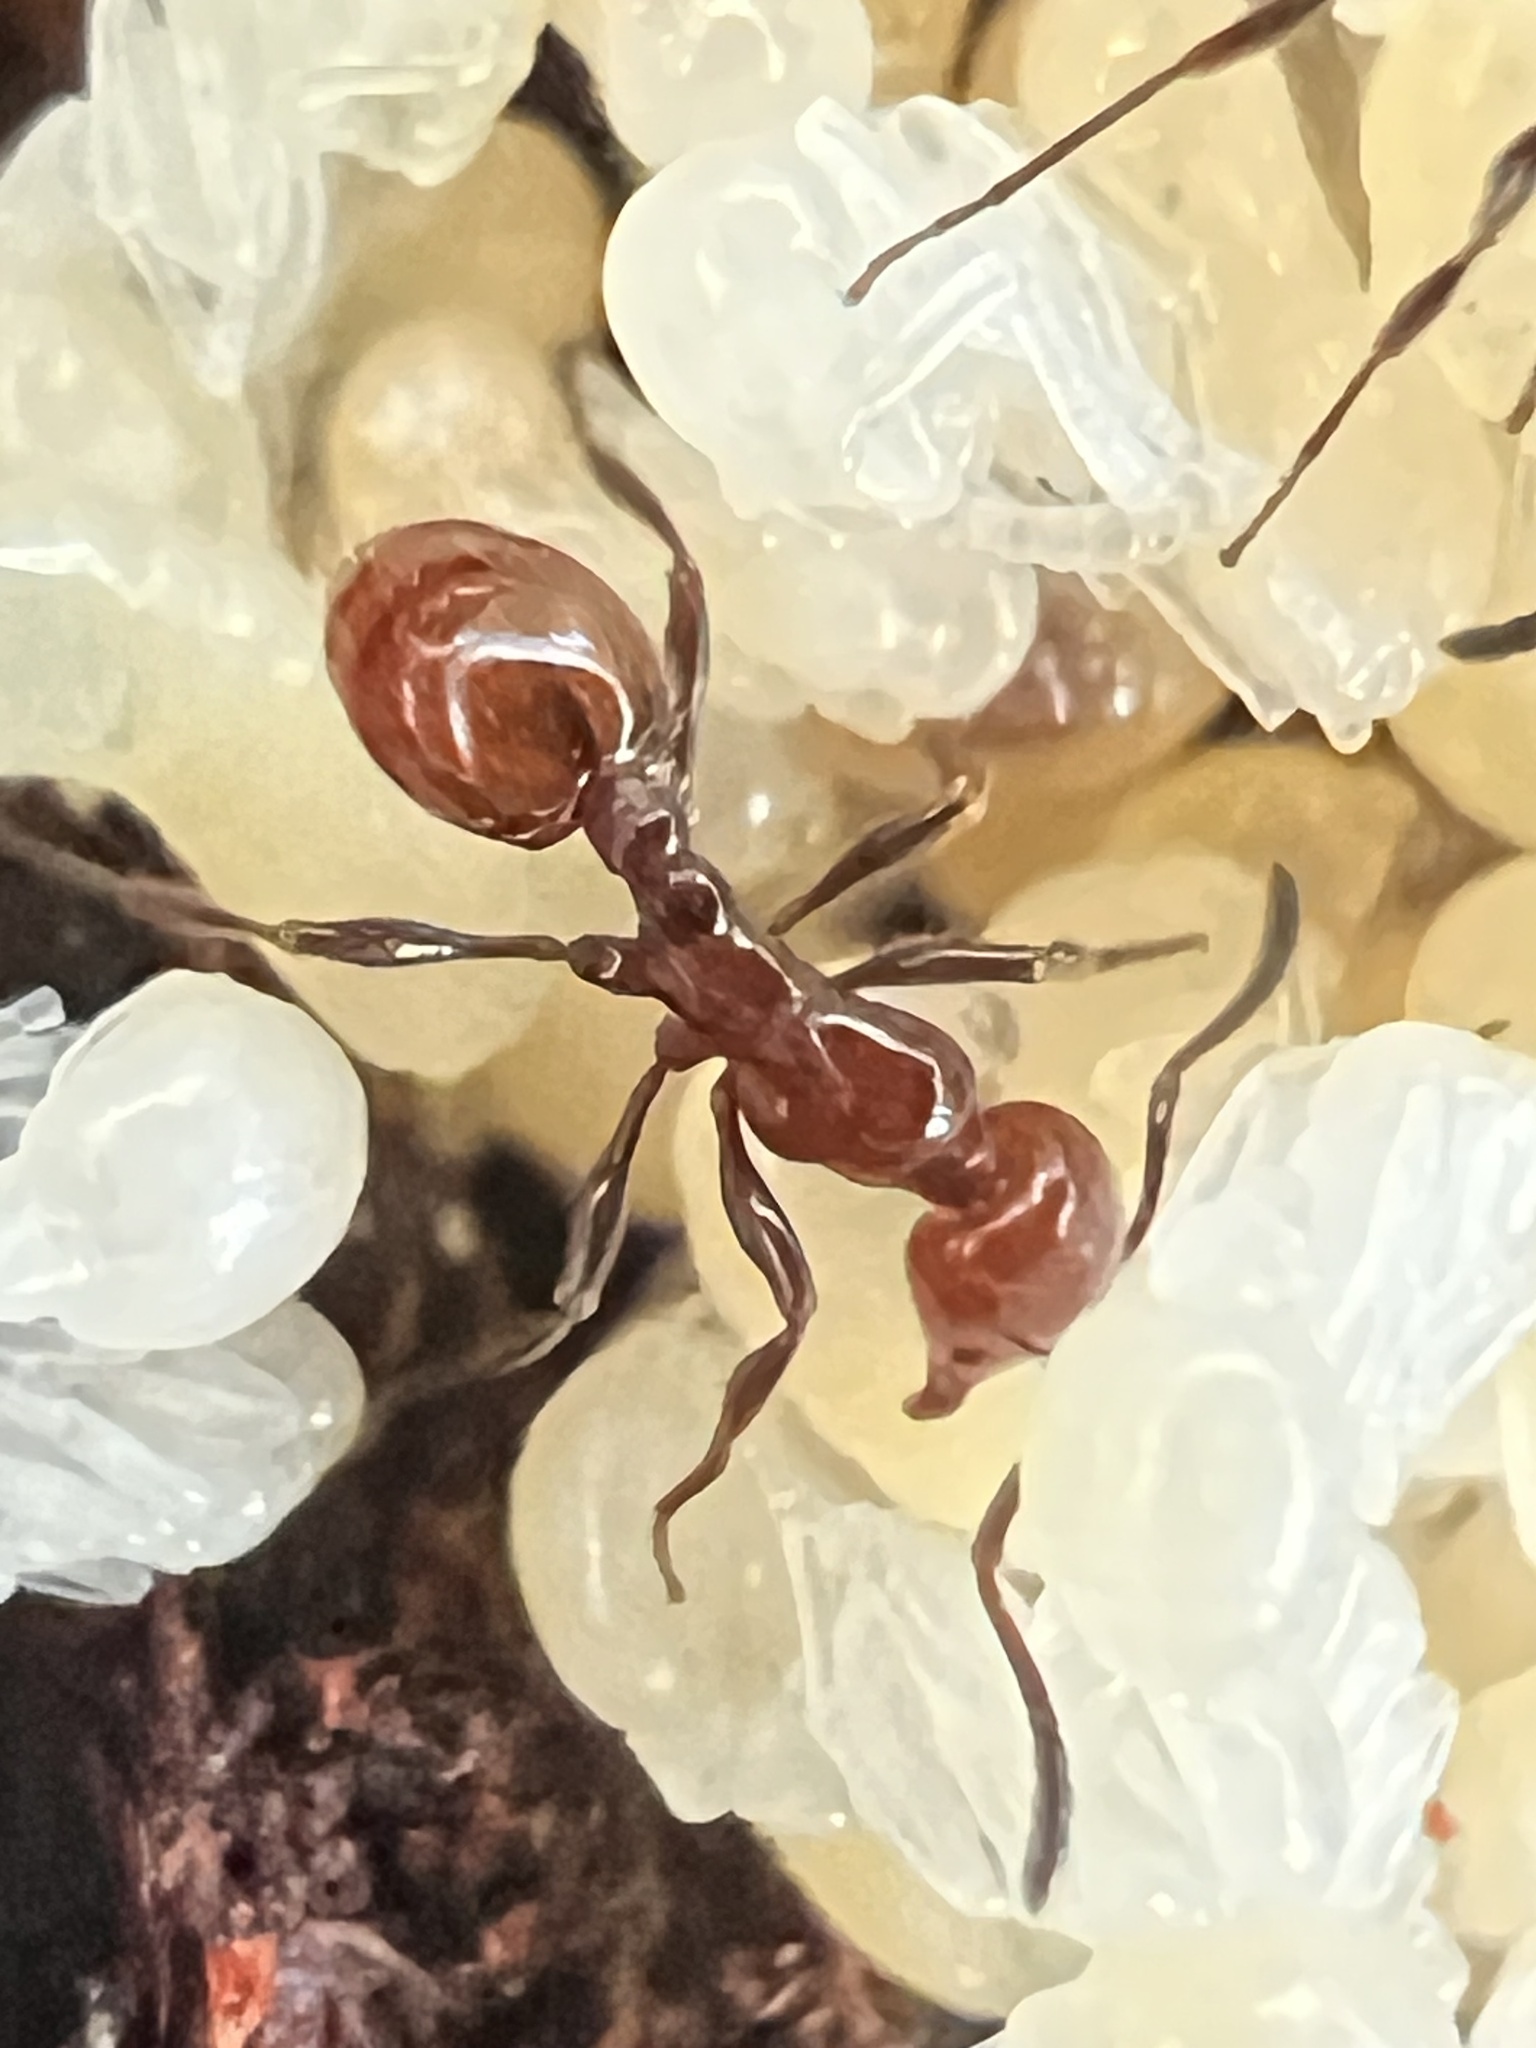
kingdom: Animalia
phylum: Arthropoda
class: Insecta
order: Hymenoptera
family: Formicidae
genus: Monomorium
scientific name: Monomorium antarcticum
